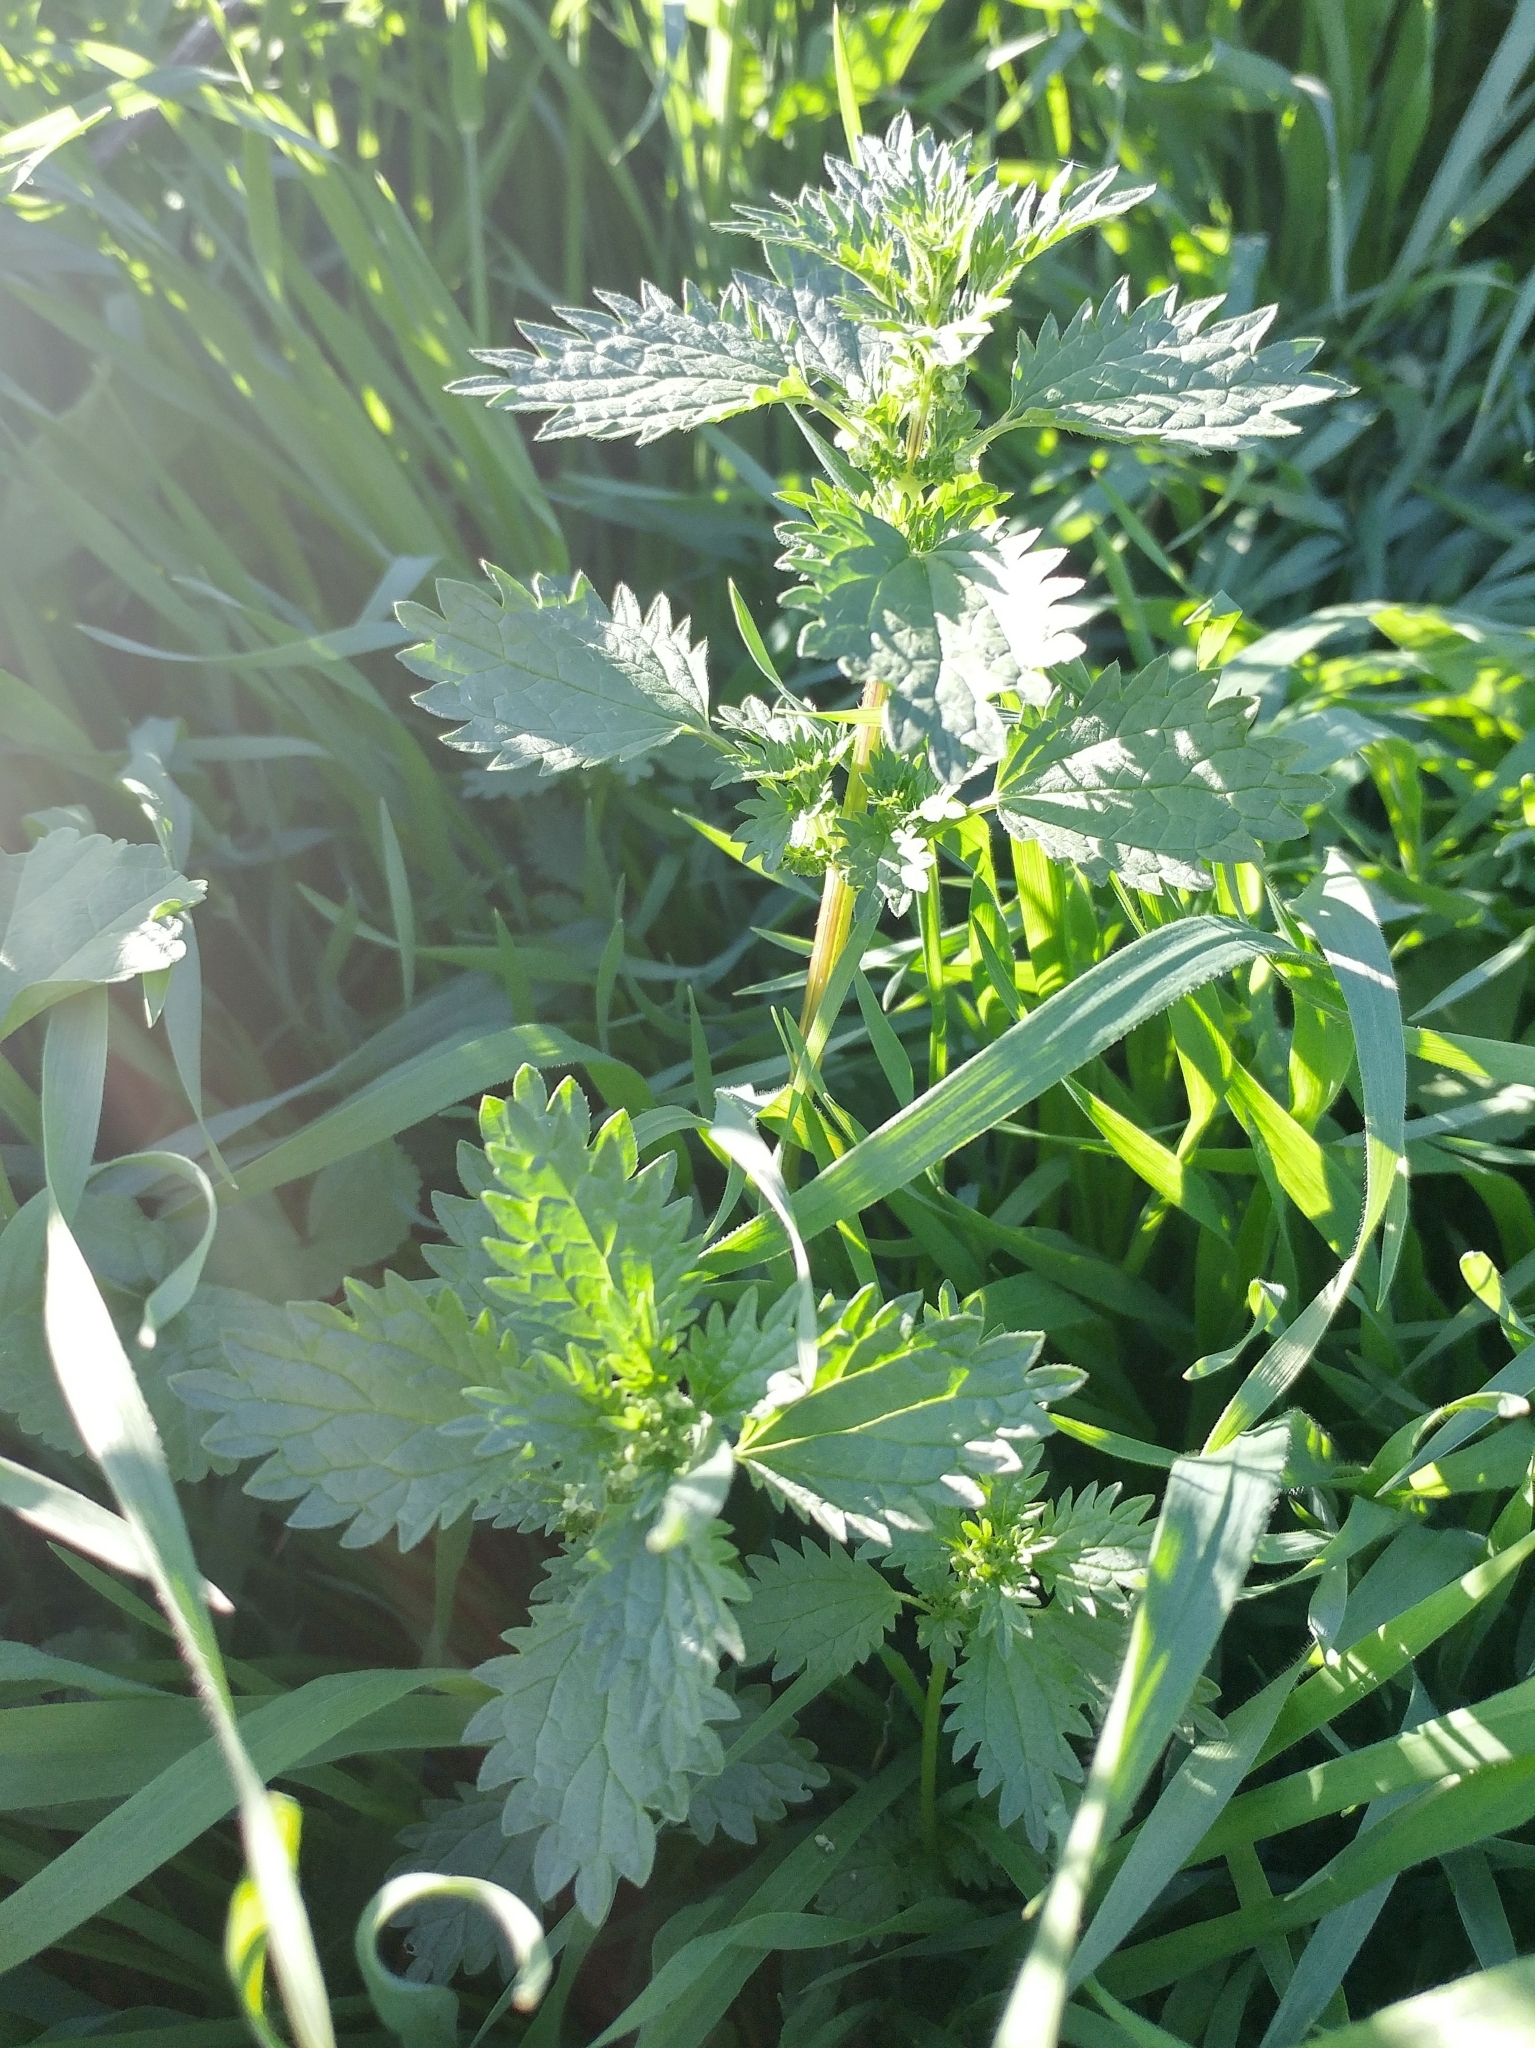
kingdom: Plantae
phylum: Tracheophyta
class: Magnoliopsida
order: Rosales
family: Urticaceae
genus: Urtica
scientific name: Urtica urens
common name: Dwarf nettle
